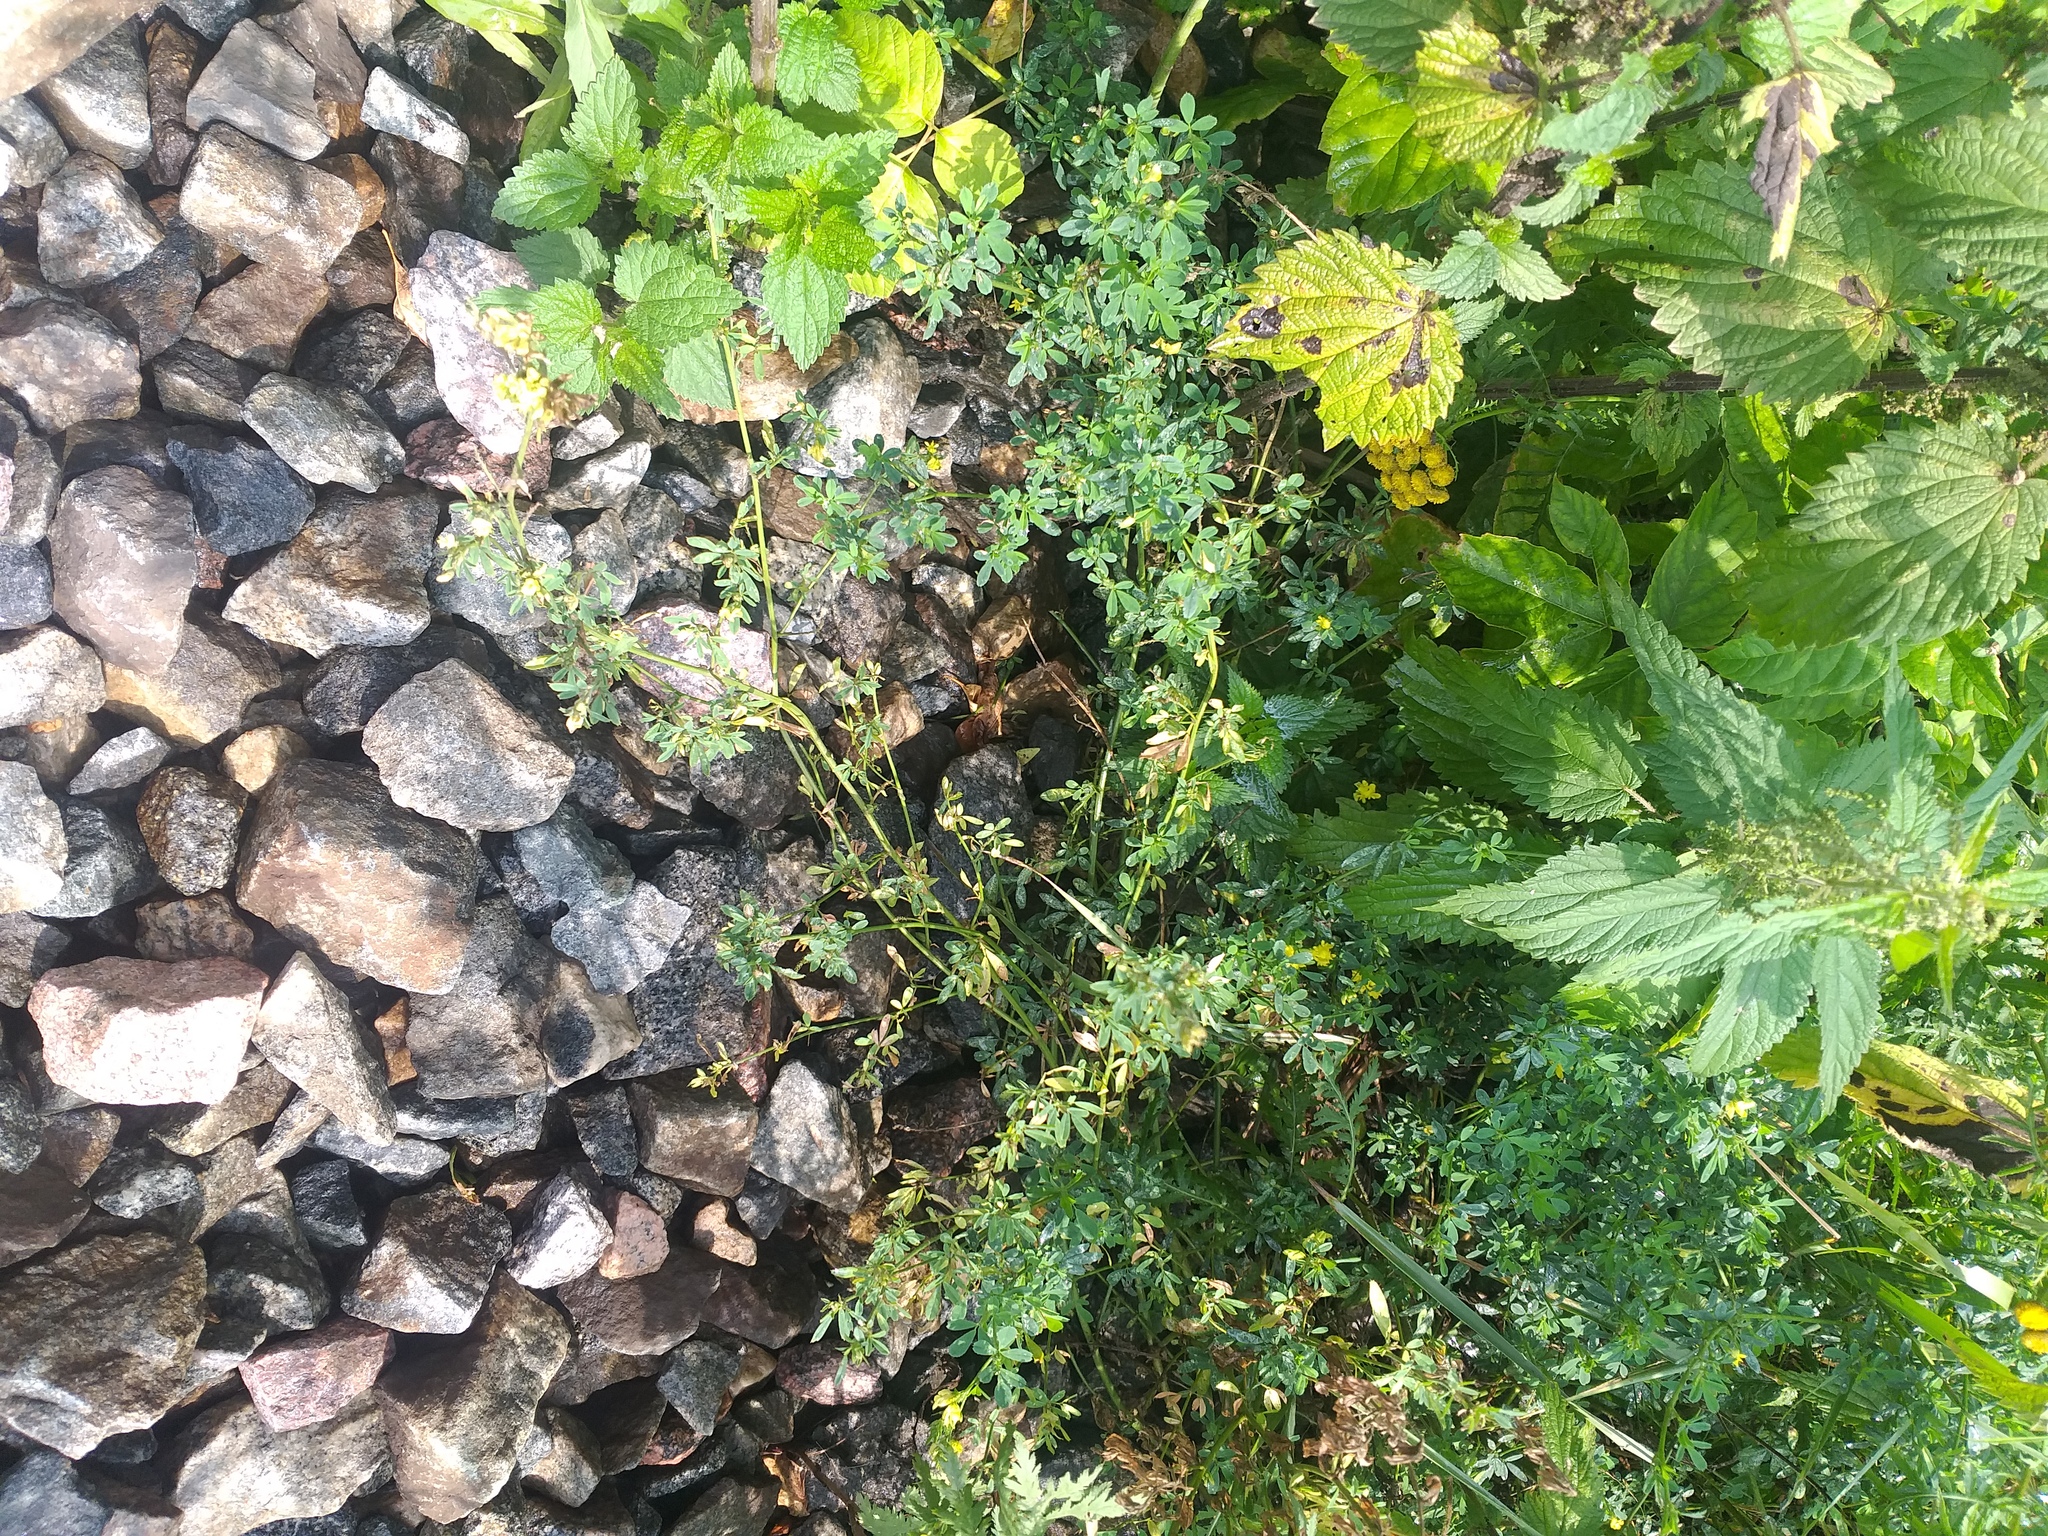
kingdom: Plantae
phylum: Tracheophyta
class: Magnoliopsida
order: Fabales
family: Fabaceae
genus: Medicago
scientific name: Medicago falcata
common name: Sickle medick
